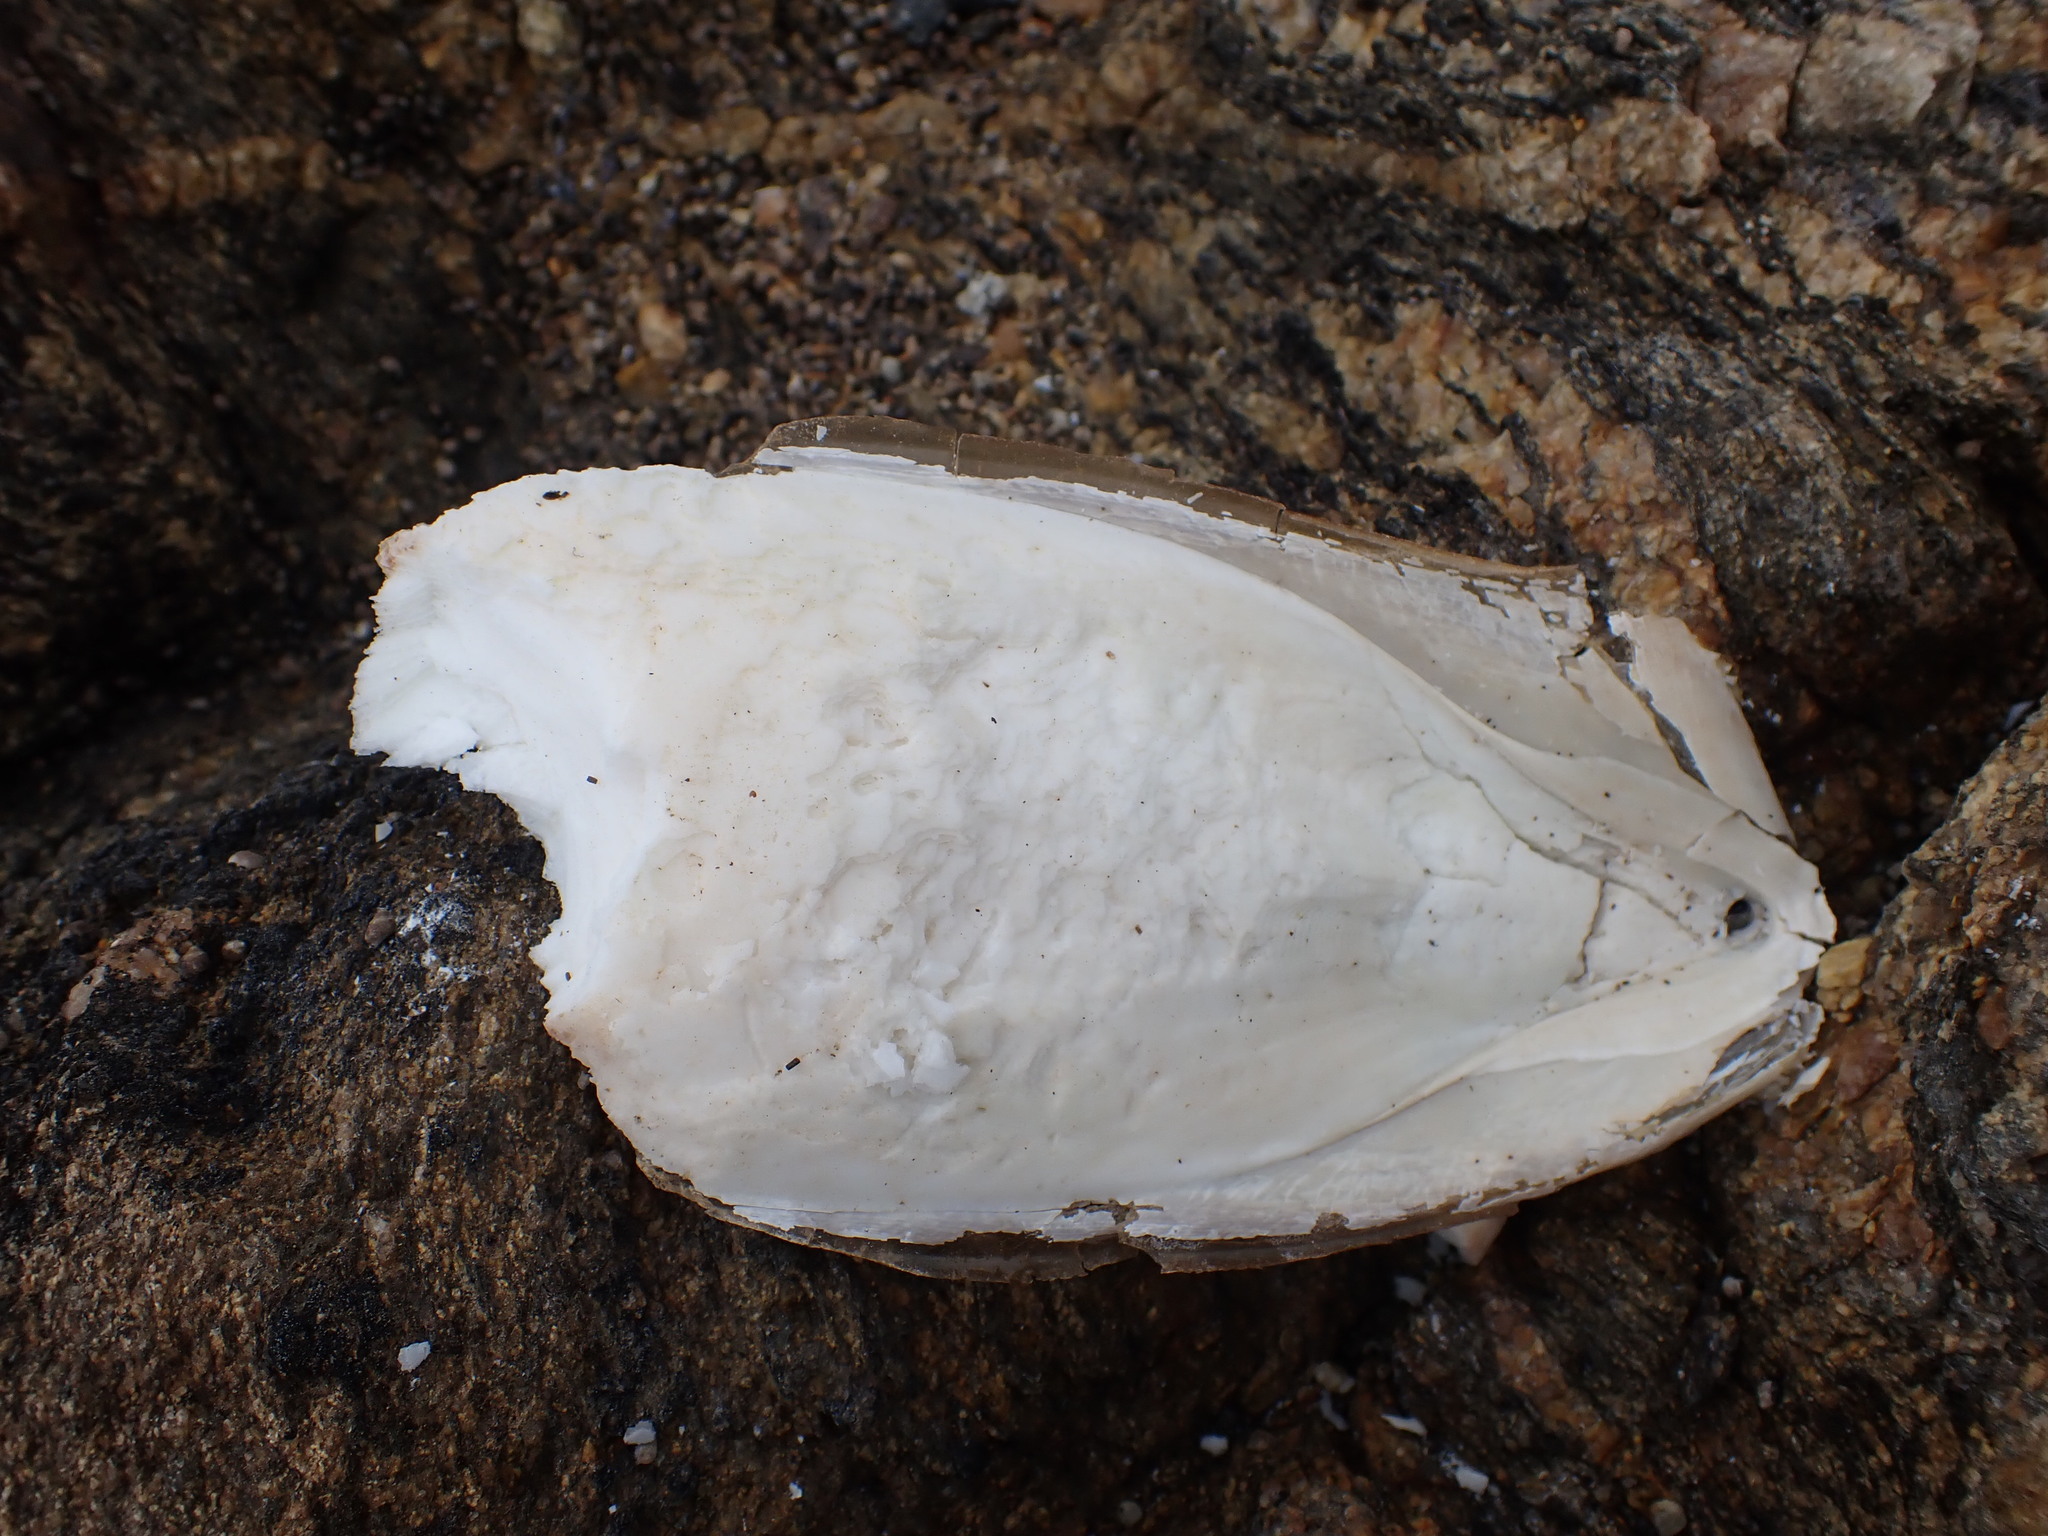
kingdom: Animalia
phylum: Mollusca
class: Cephalopoda
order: Sepiida
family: Sepiidae
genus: Sepia
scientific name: Sepia officinalis
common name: Common cuttlefish
